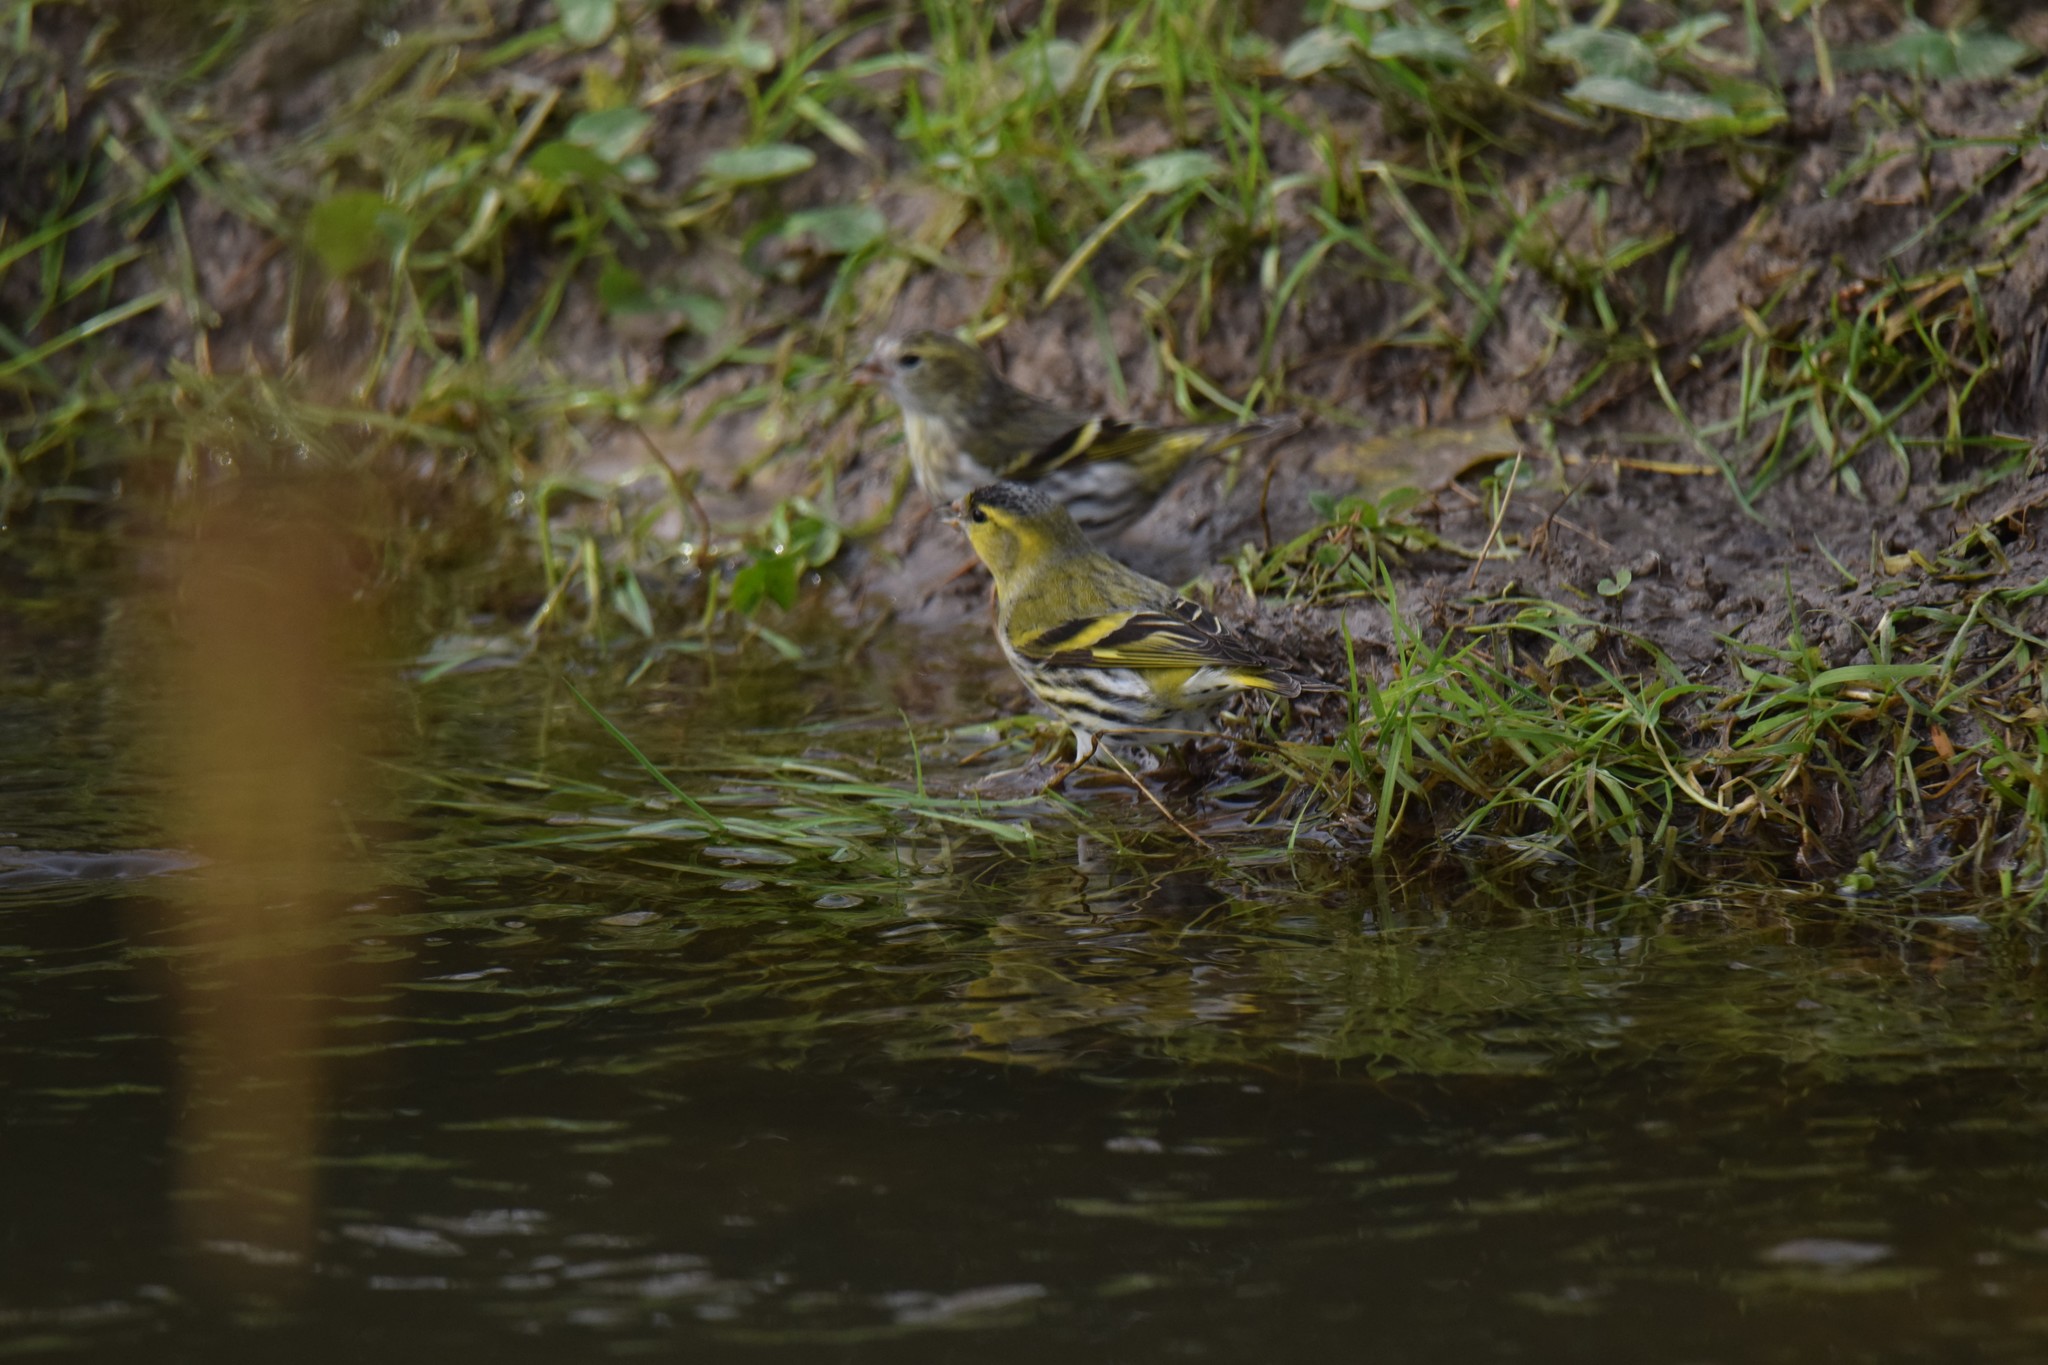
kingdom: Animalia
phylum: Chordata
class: Aves
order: Passeriformes
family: Fringillidae
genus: Spinus
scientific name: Spinus spinus
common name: Eurasian siskin
